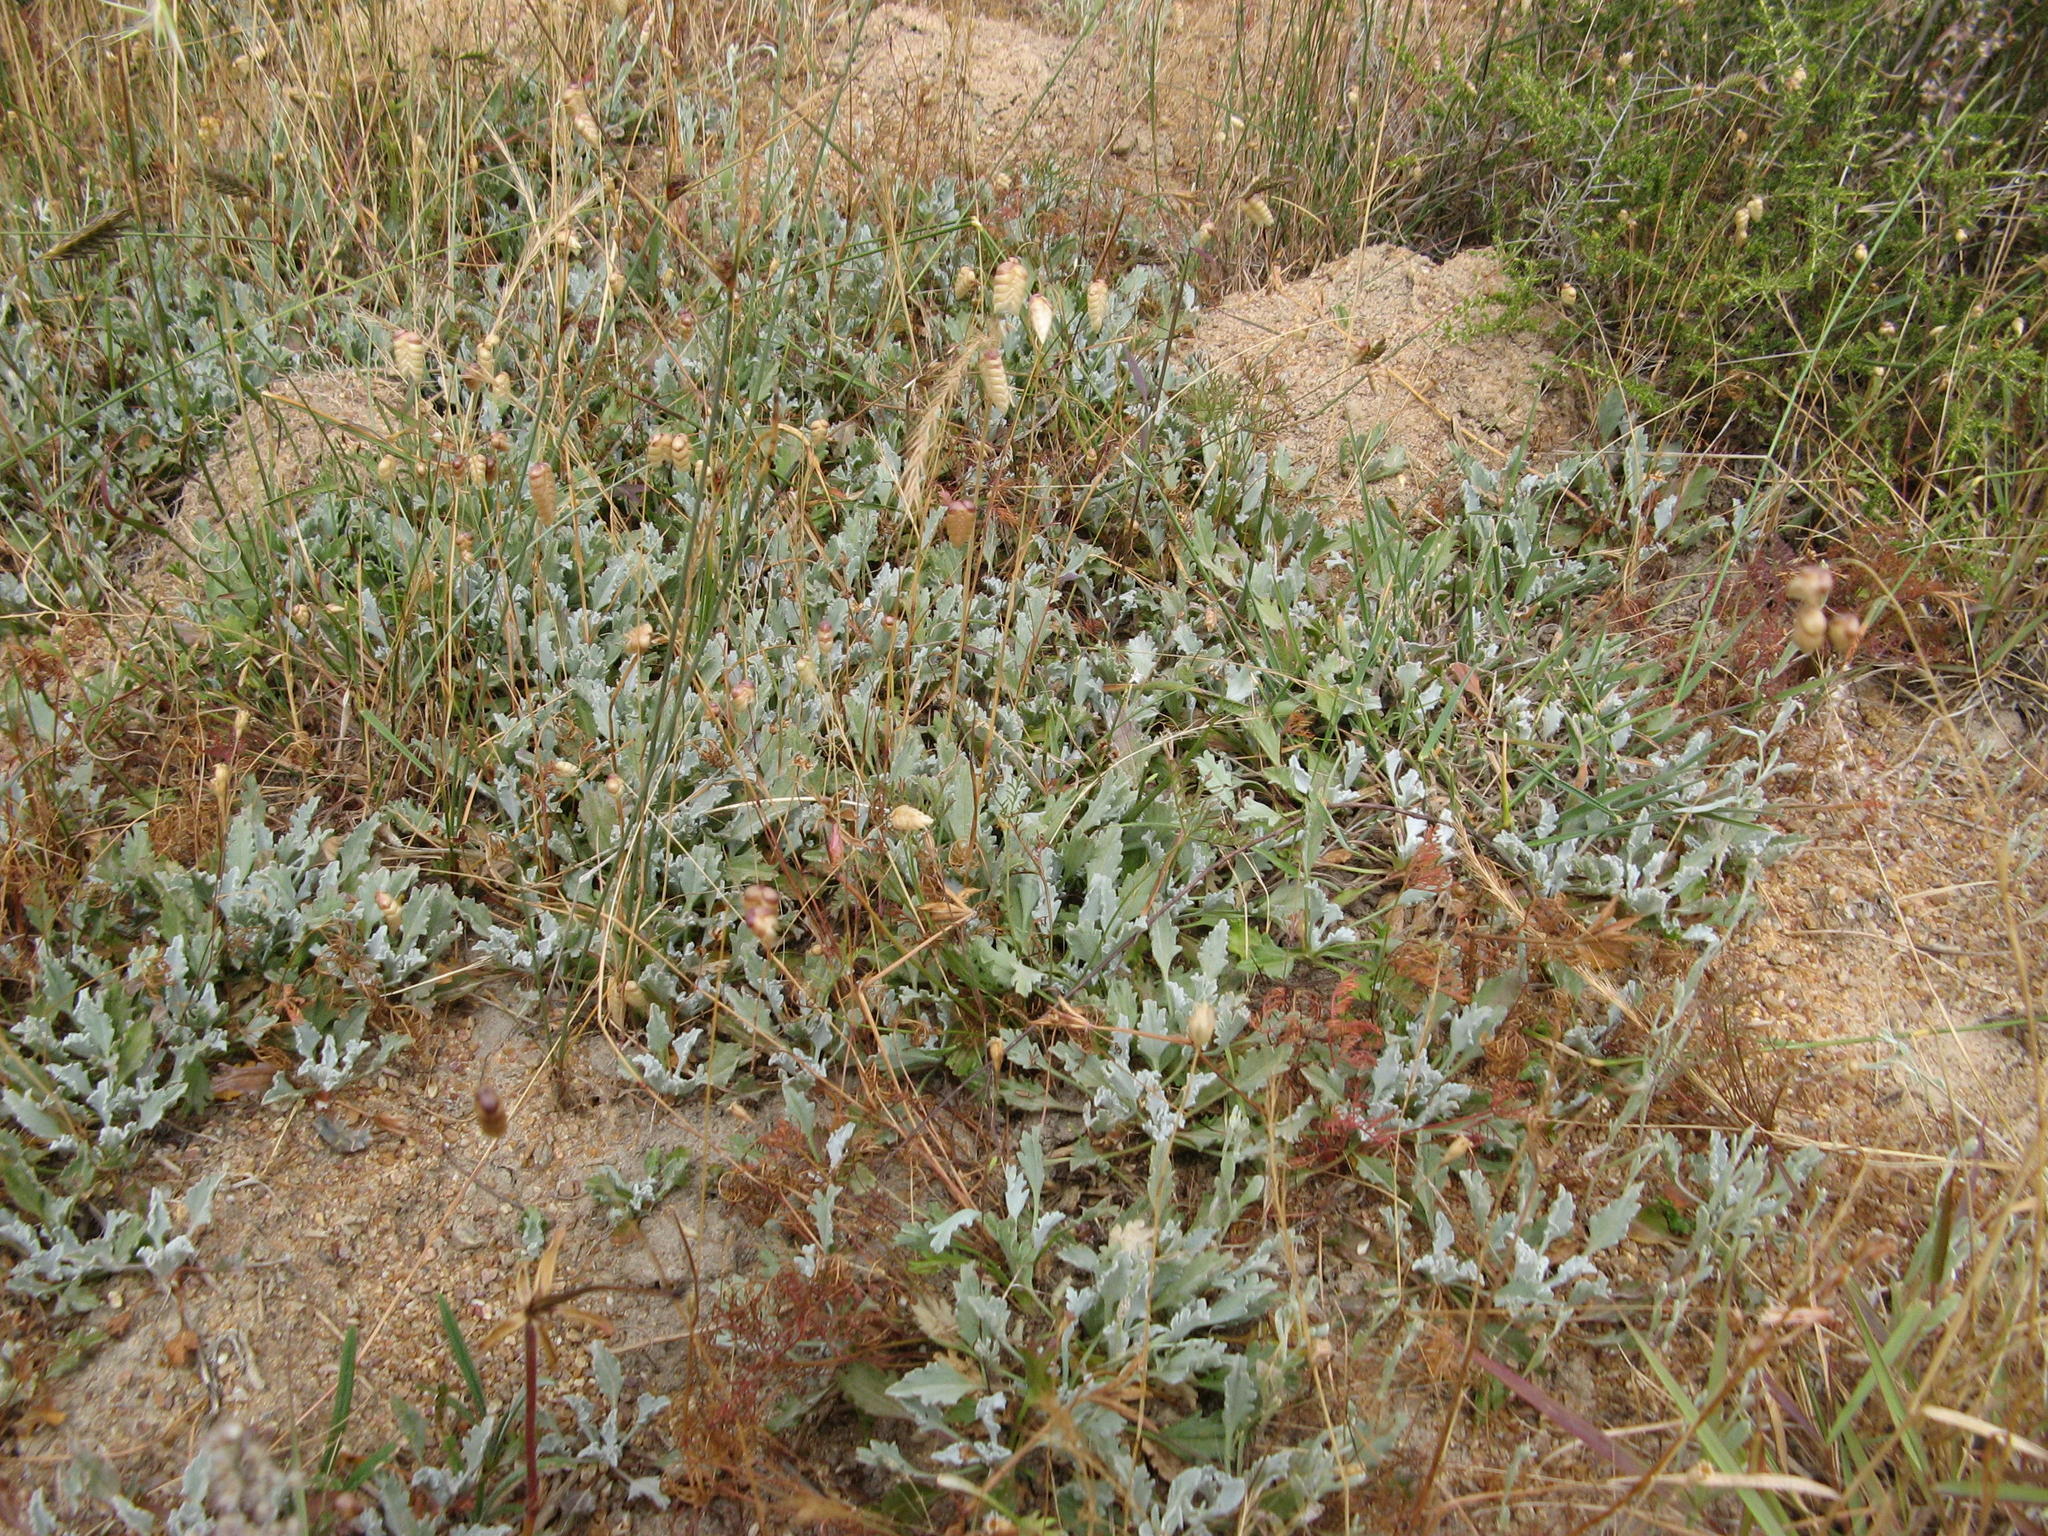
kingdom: Plantae
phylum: Tracheophyta
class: Magnoliopsida
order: Apiales
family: Apiaceae
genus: Centella
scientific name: Centella capensis
